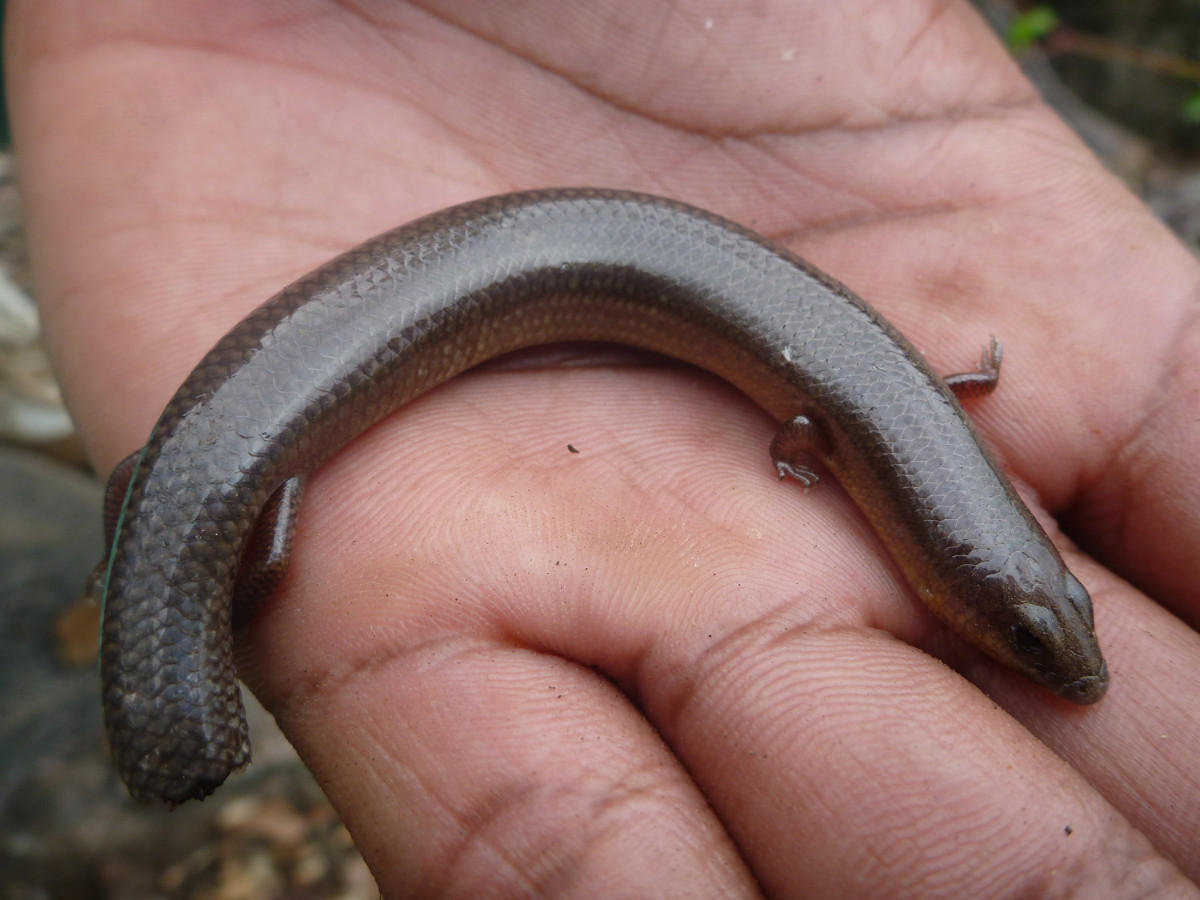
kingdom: Animalia
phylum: Chordata
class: Squamata
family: Scincidae
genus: Mochlus
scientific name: Mochlus sundevallii
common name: Peters' eyelid skink
